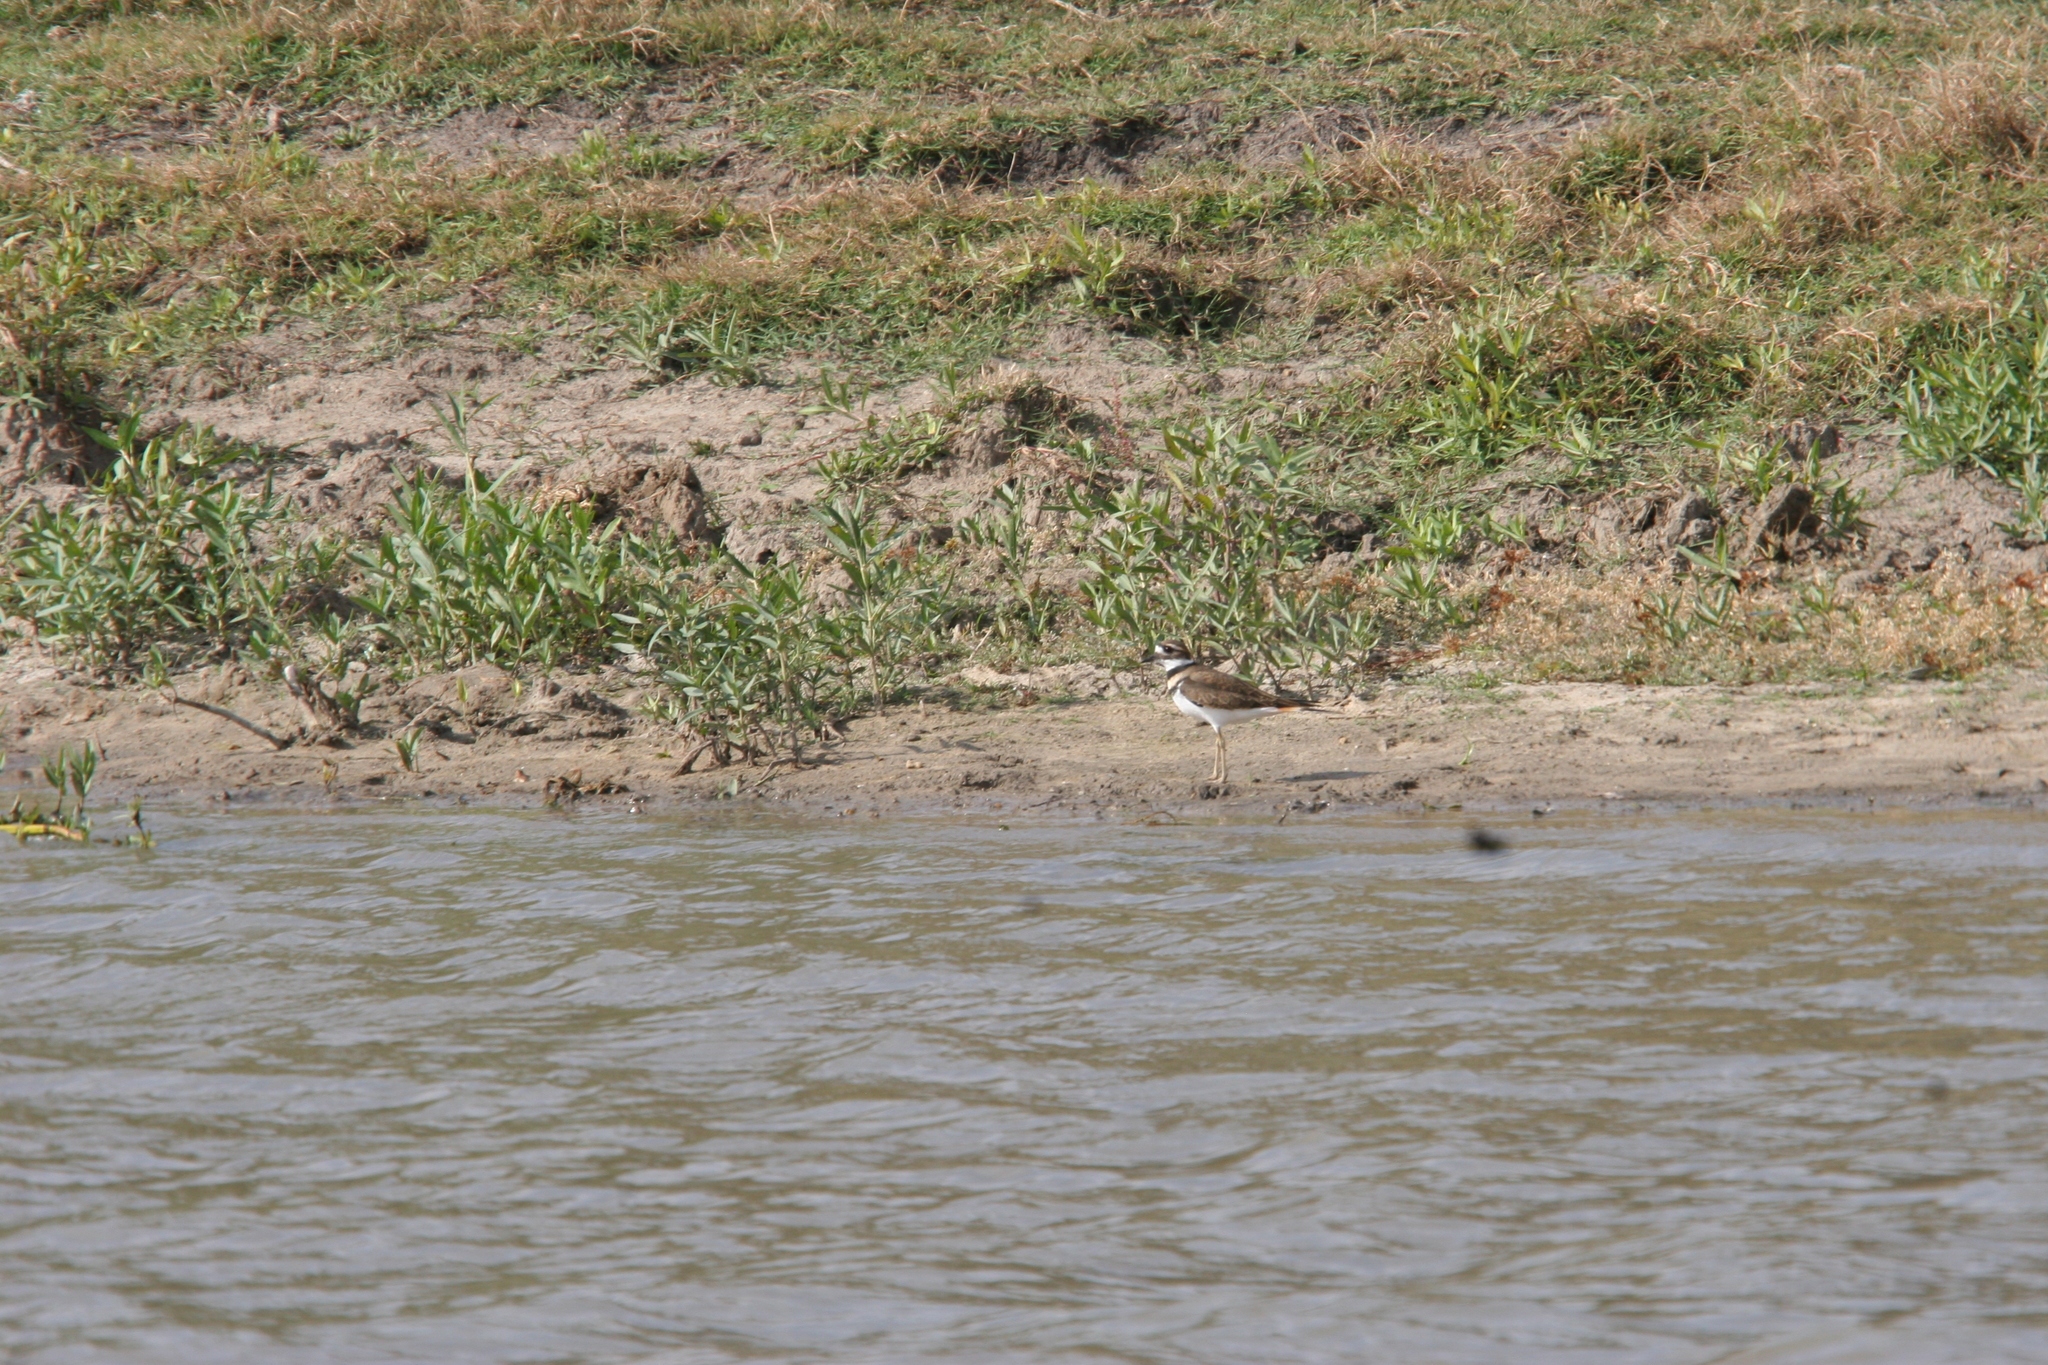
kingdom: Animalia
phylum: Chordata
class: Aves
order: Charadriiformes
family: Charadriidae
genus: Charadrius
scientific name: Charadrius vociferus
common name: Killdeer
